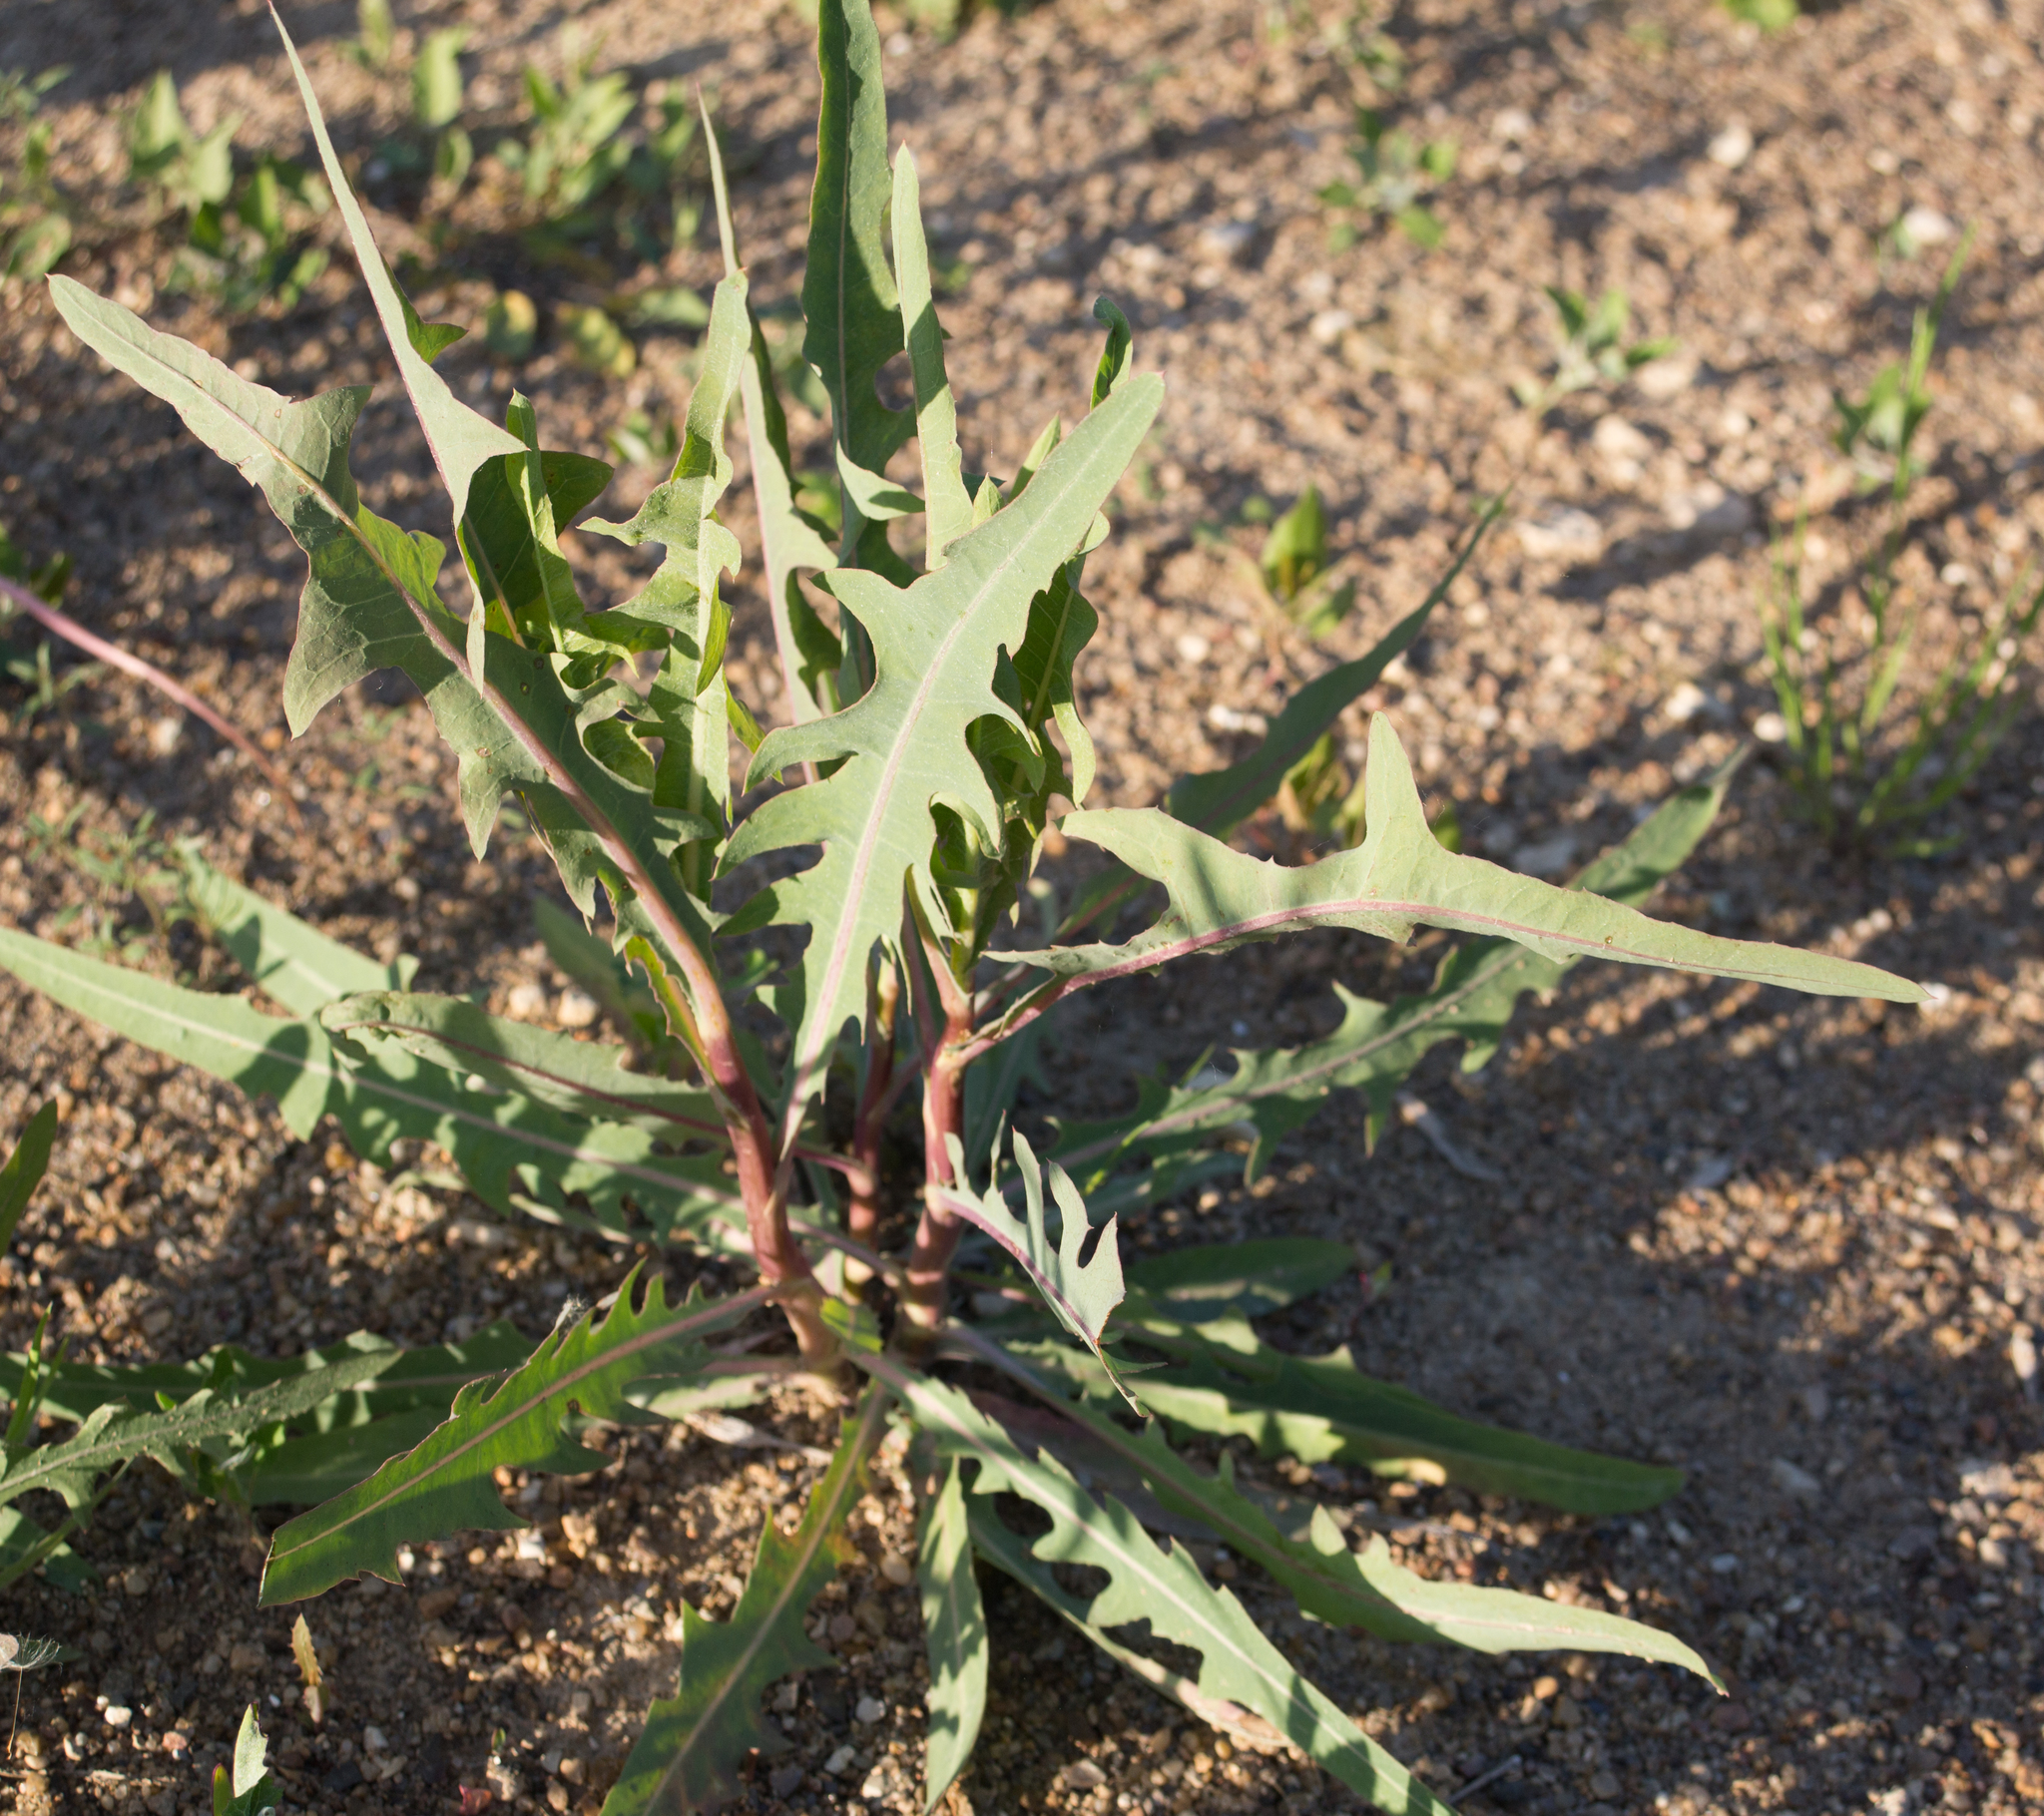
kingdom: Plantae
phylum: Tracheophyta
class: Magnoliopsida
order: Asterales
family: Asteraceae
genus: Lactuca
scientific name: Lactuca tatarica
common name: Blue lettuce
